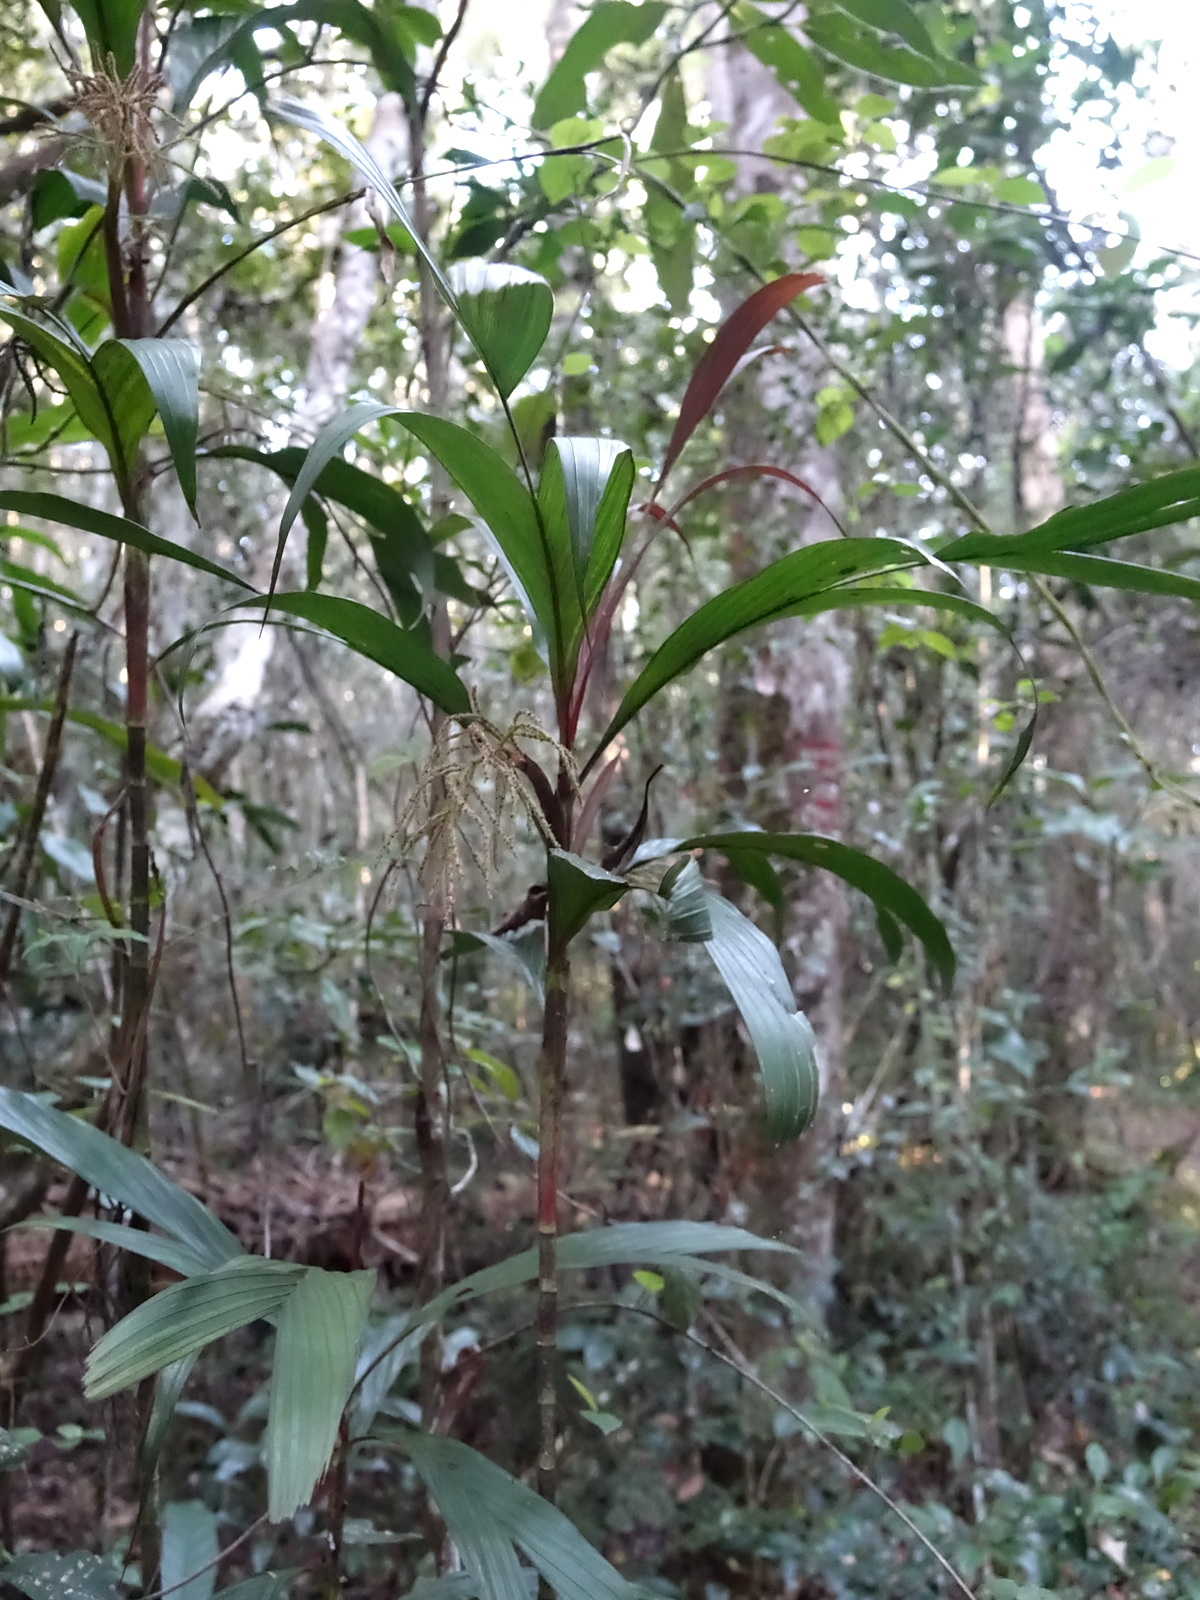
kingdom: Plantae
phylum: Tracheophyta
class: Liliopsida
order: Arecales
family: Arecaceae
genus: Dypsis
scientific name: Dypsis hildebrandtii
